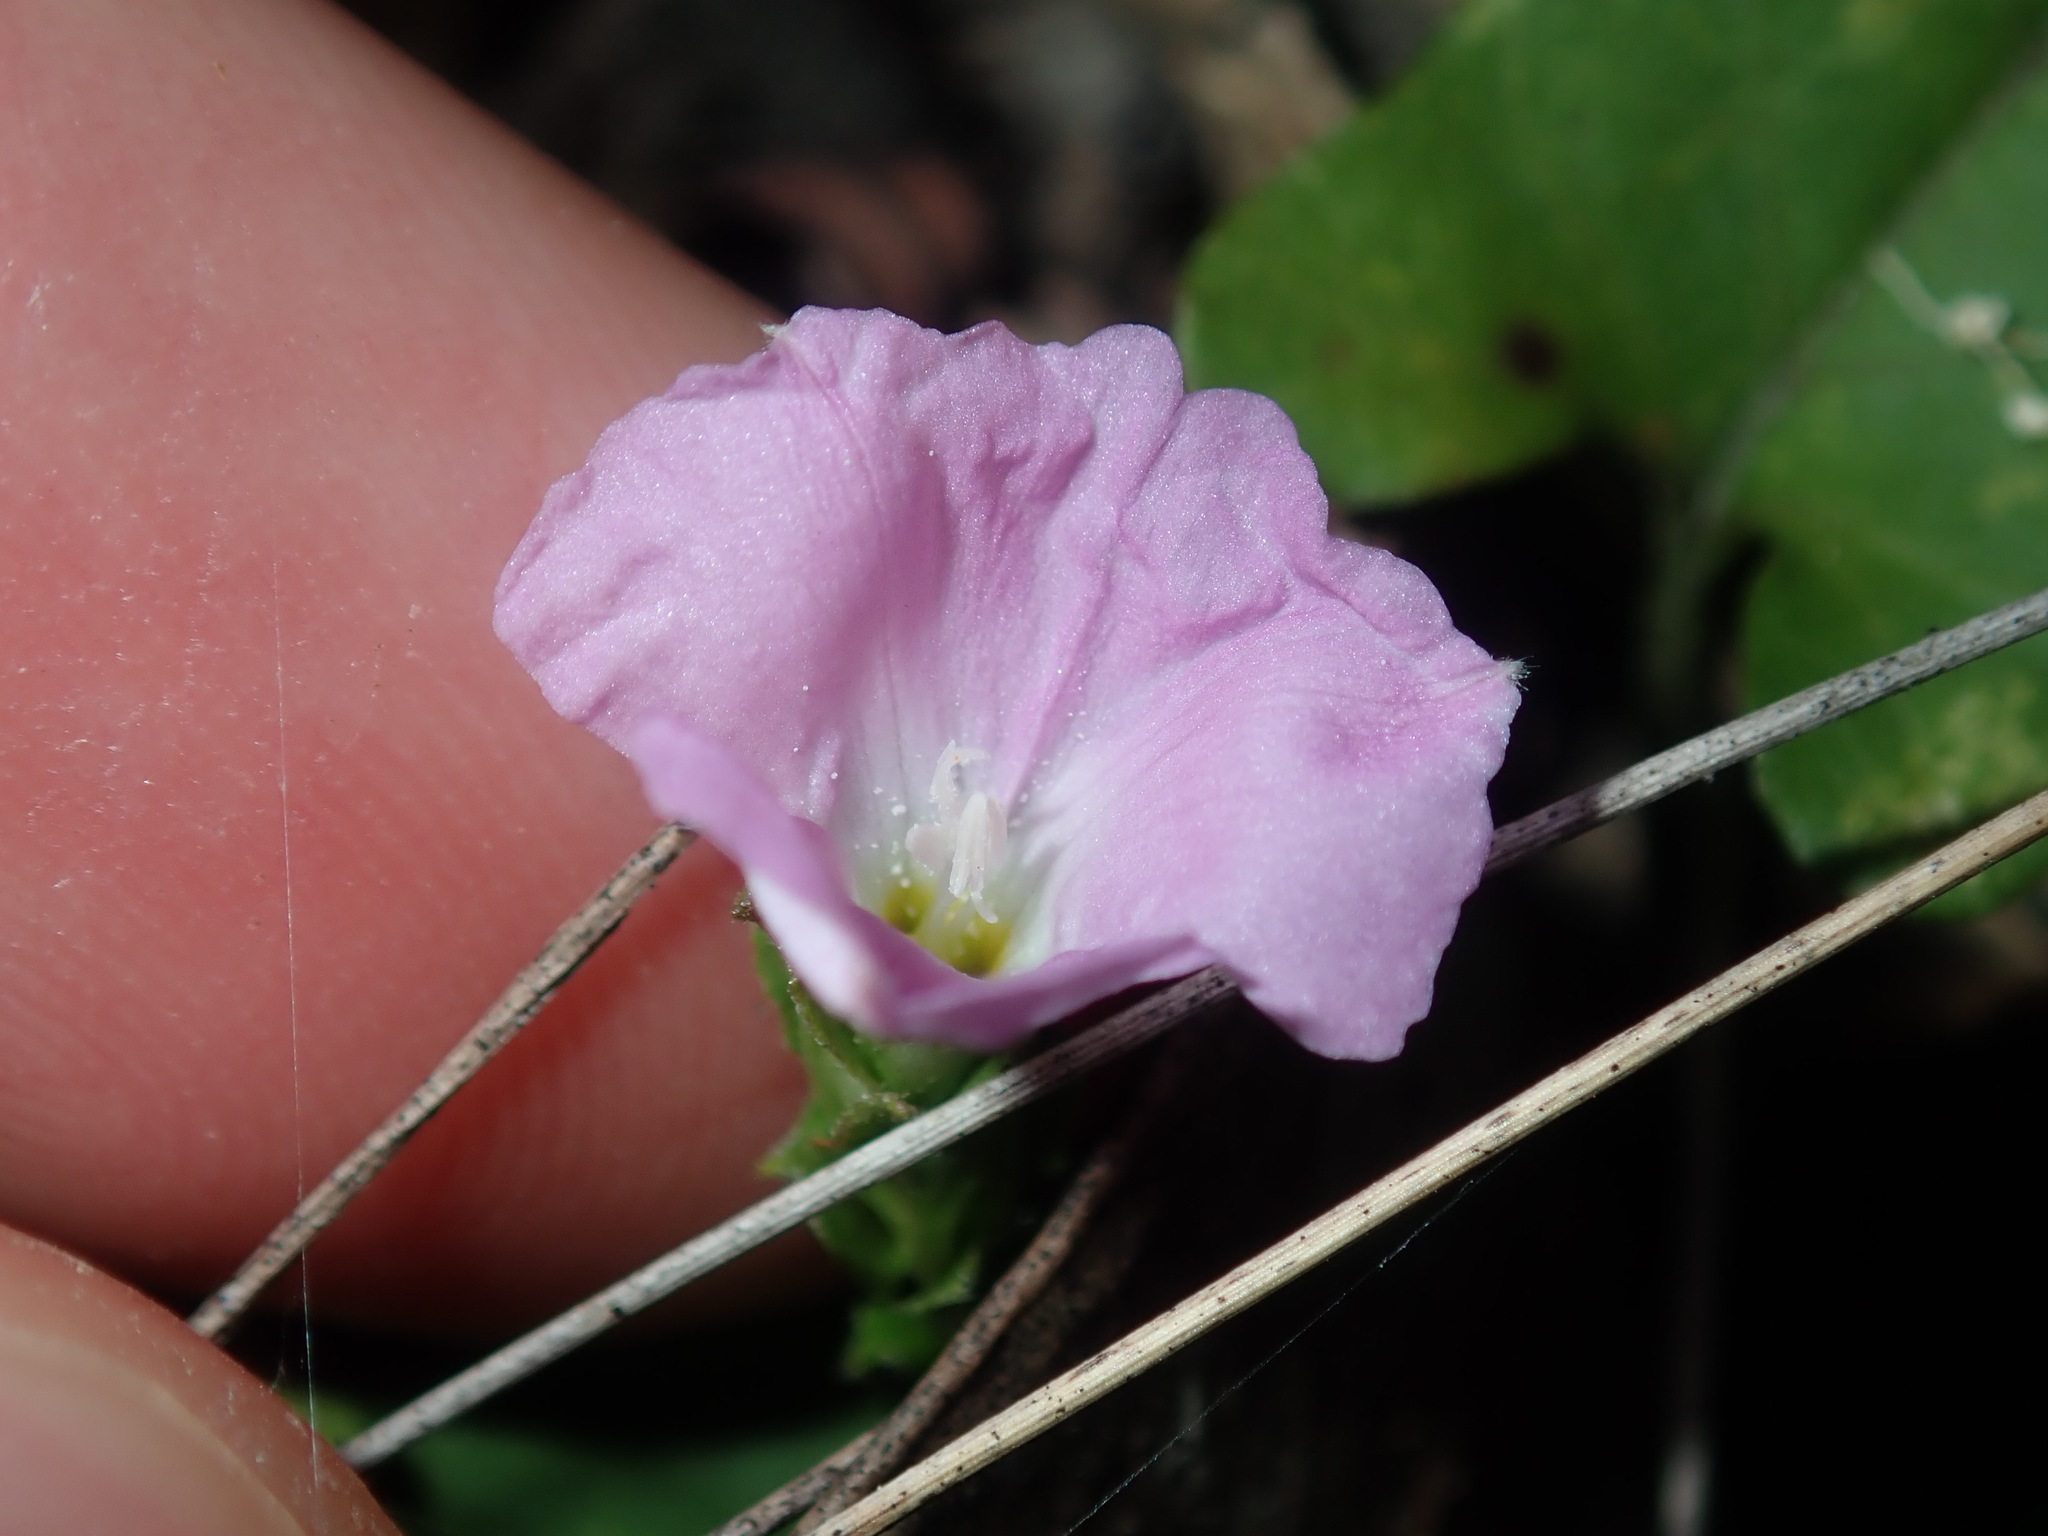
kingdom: Plantae
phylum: Tracheophyta
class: Magnoliopsida
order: Solanales
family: Convolvulaceae
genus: Polymeria
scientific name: Polymeria calycina
